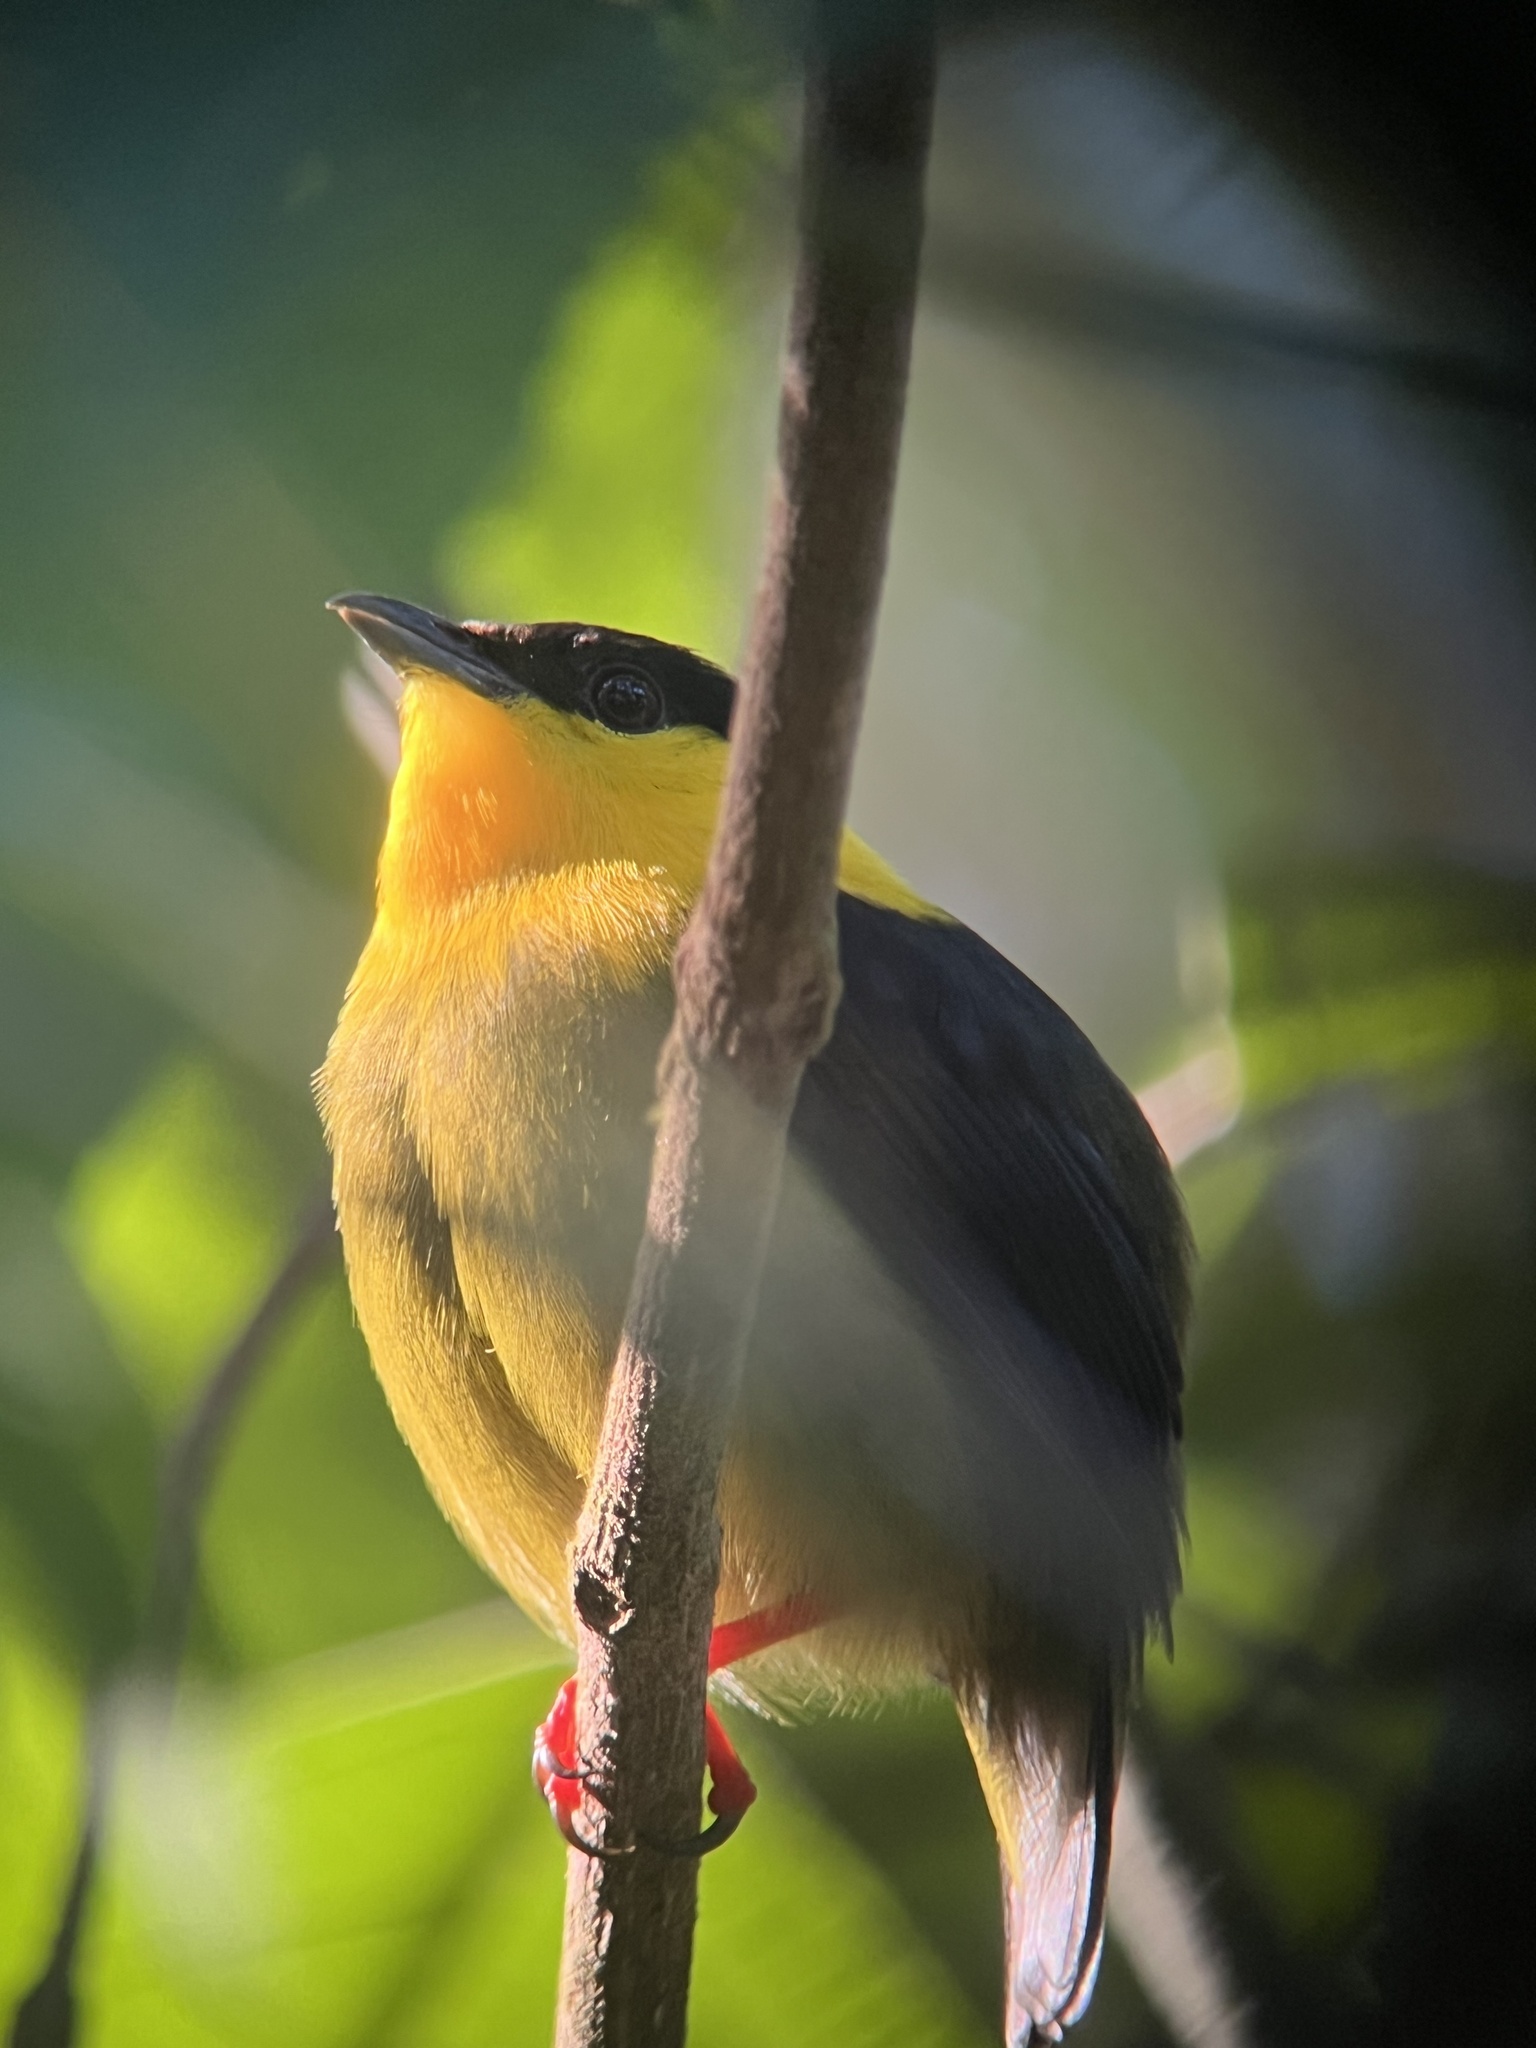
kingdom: Animalia
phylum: Chordata
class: Aves
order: Passeriformes
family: Pipridae
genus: Manacus
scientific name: Manacus vitellinus
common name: Golden-collared manakin
